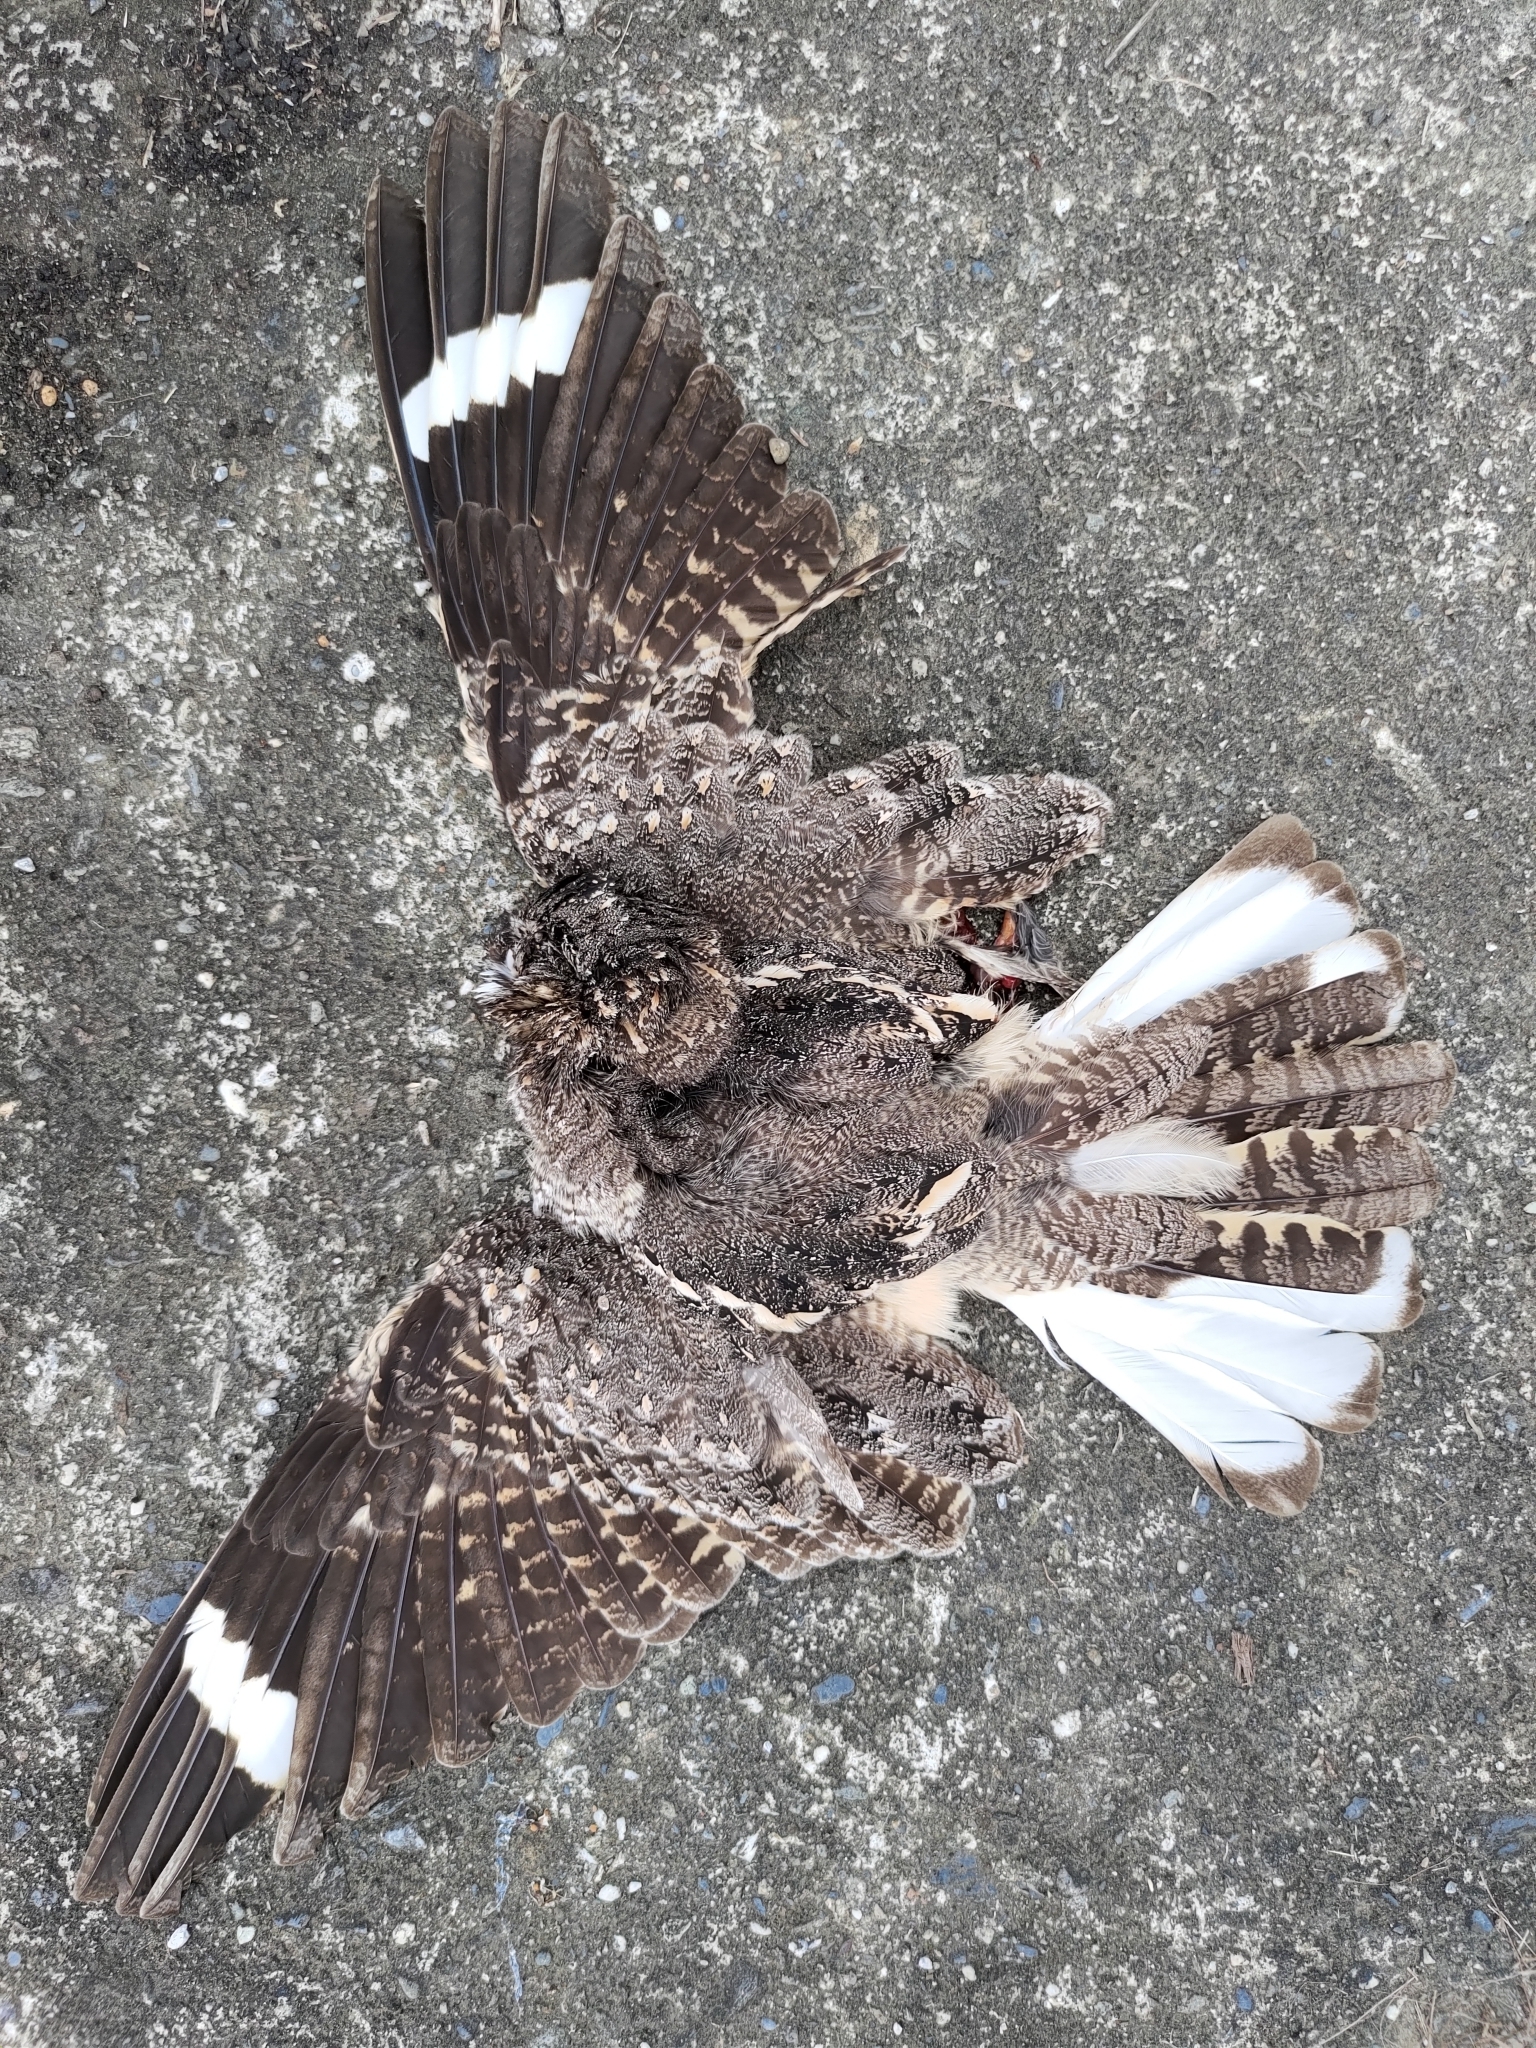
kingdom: Animalia
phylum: Chordata
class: Aves
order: Caprimulgiformes
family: Caprimulgidae
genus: Caprimulgus
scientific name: Caprimulgus affinis
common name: Savanna nightjar
